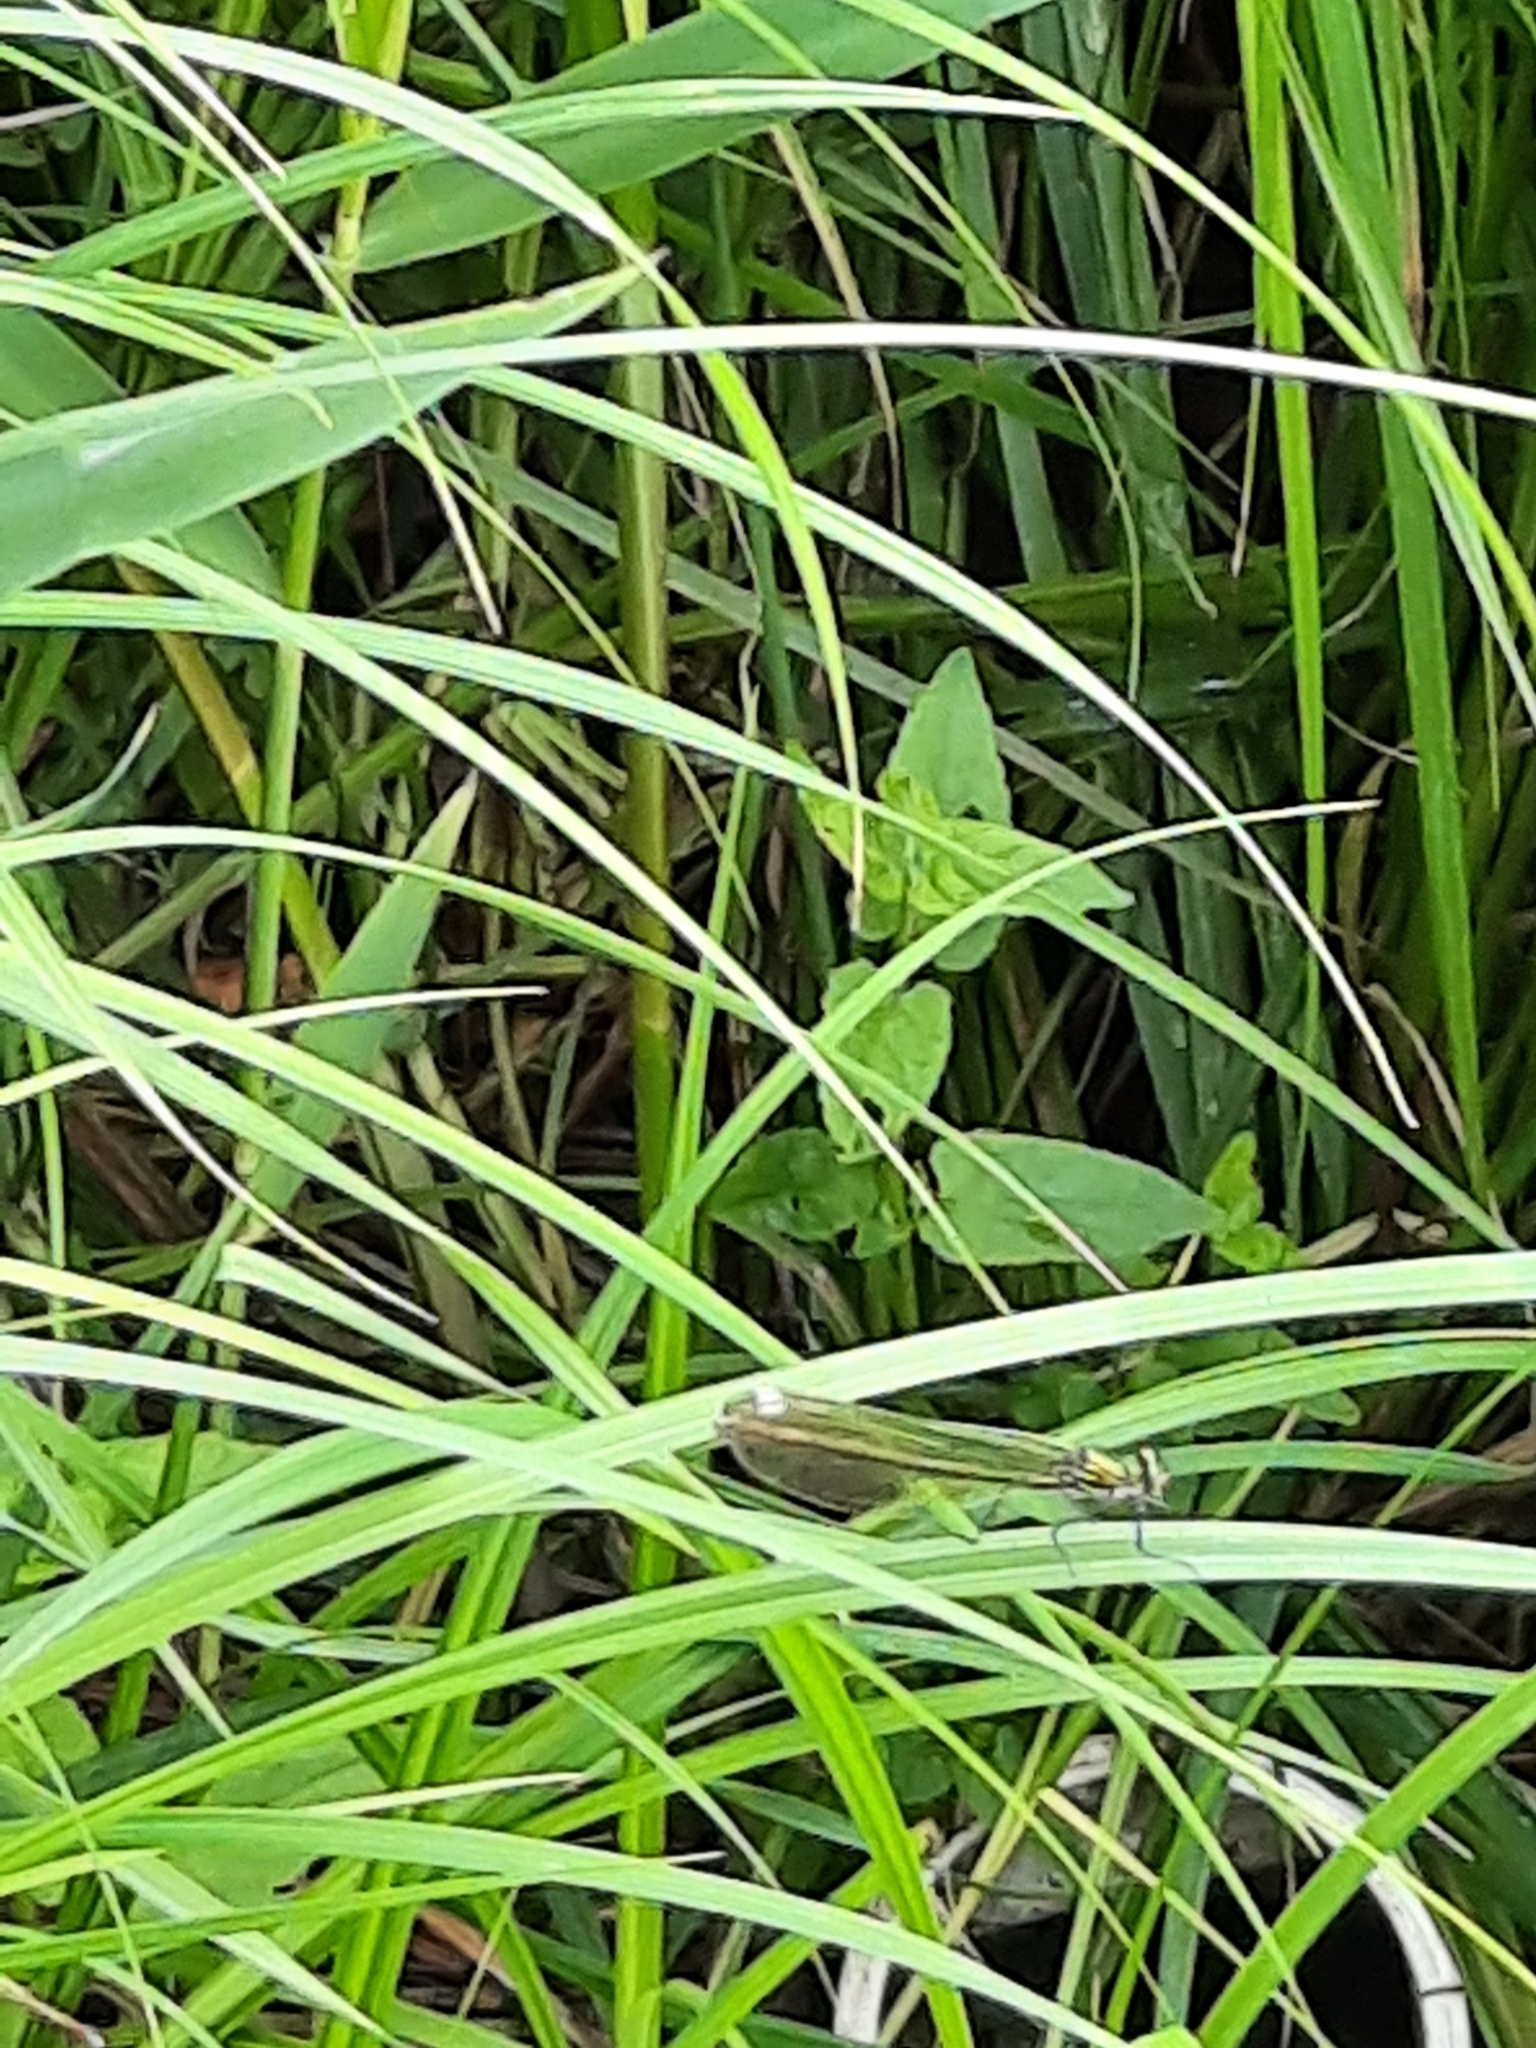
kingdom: Animalia
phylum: Arthropoda
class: Insecta
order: Odonata
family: Calopterygidae
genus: Calopteryx
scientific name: Calopteryx splendens
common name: Banded demoiselle
